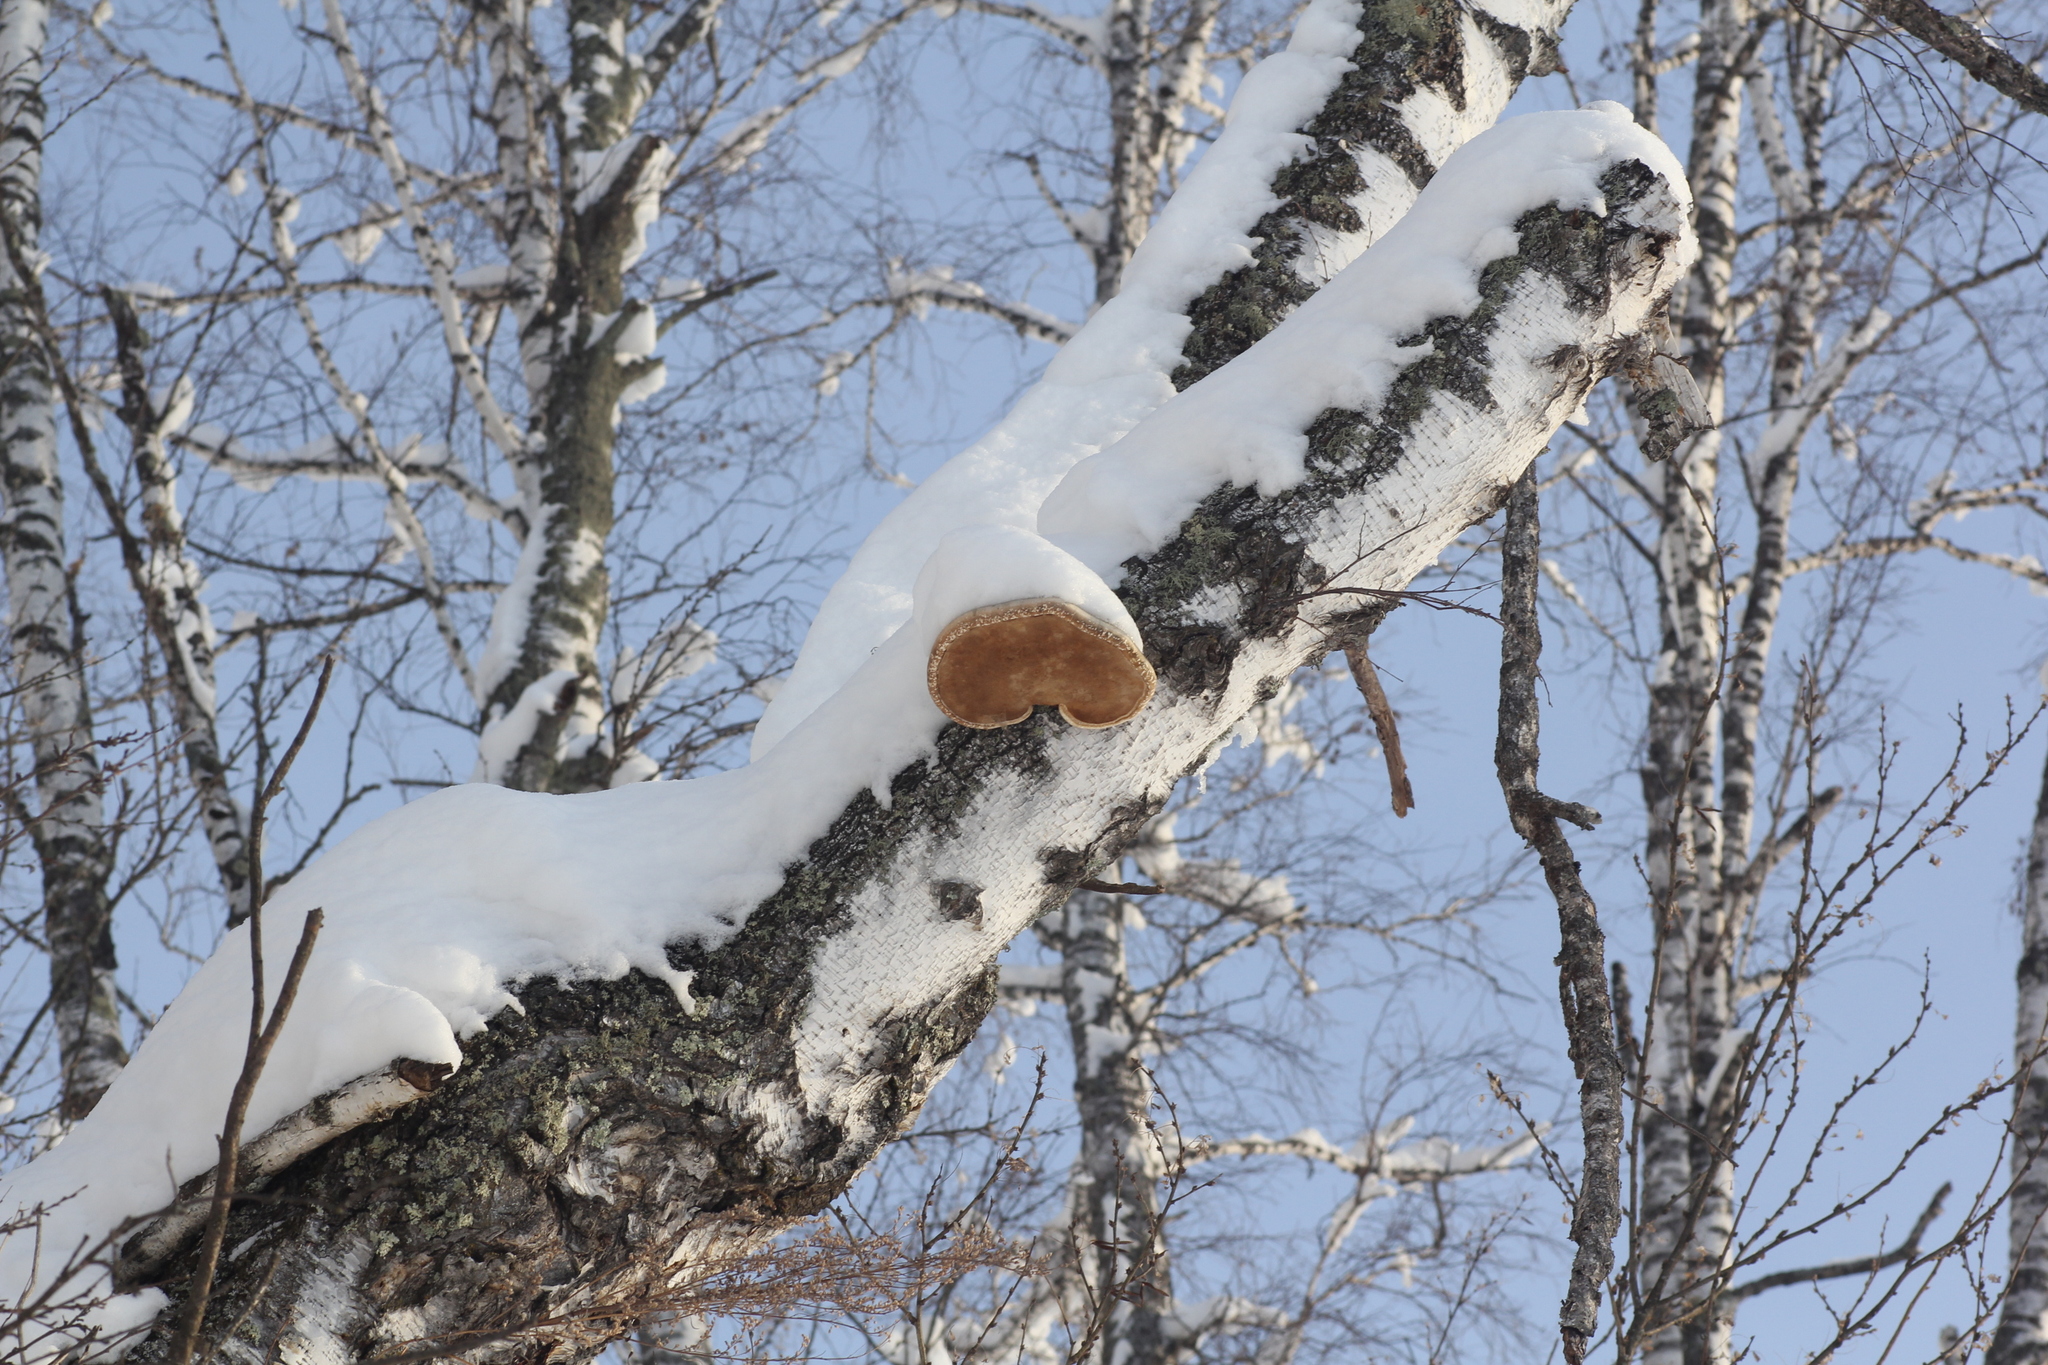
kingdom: Fungi
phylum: Basidiomycota
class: Agaricomycetes
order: Polyporales
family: Fomitopsidaceae
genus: Fomitopsis
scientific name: Fomitopsis betulina
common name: Birch polypore
